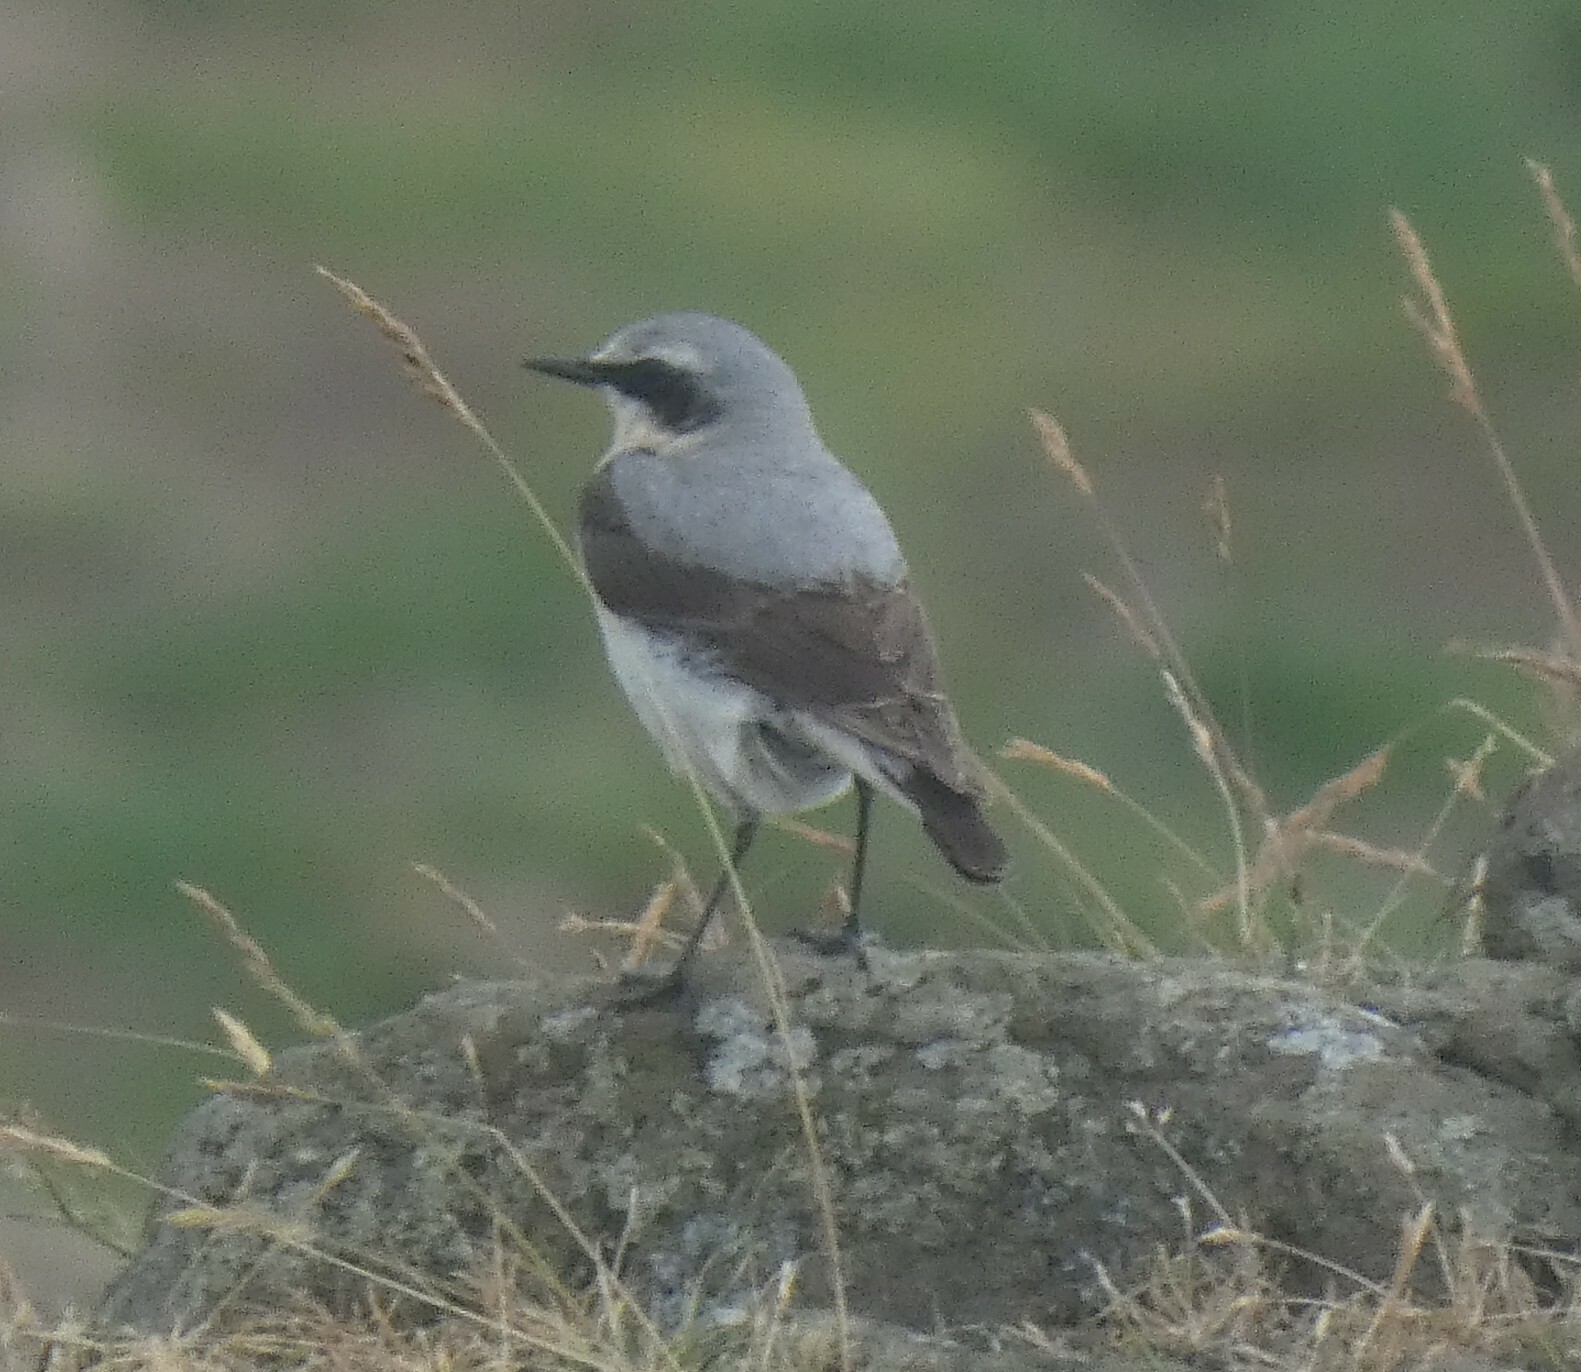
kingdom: Animalia
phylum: Chordata
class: Aves
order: Passeriformes
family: Muscicapidae
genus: Oenanthe
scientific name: Oenanthe oenanthe
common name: Northern wheatear
